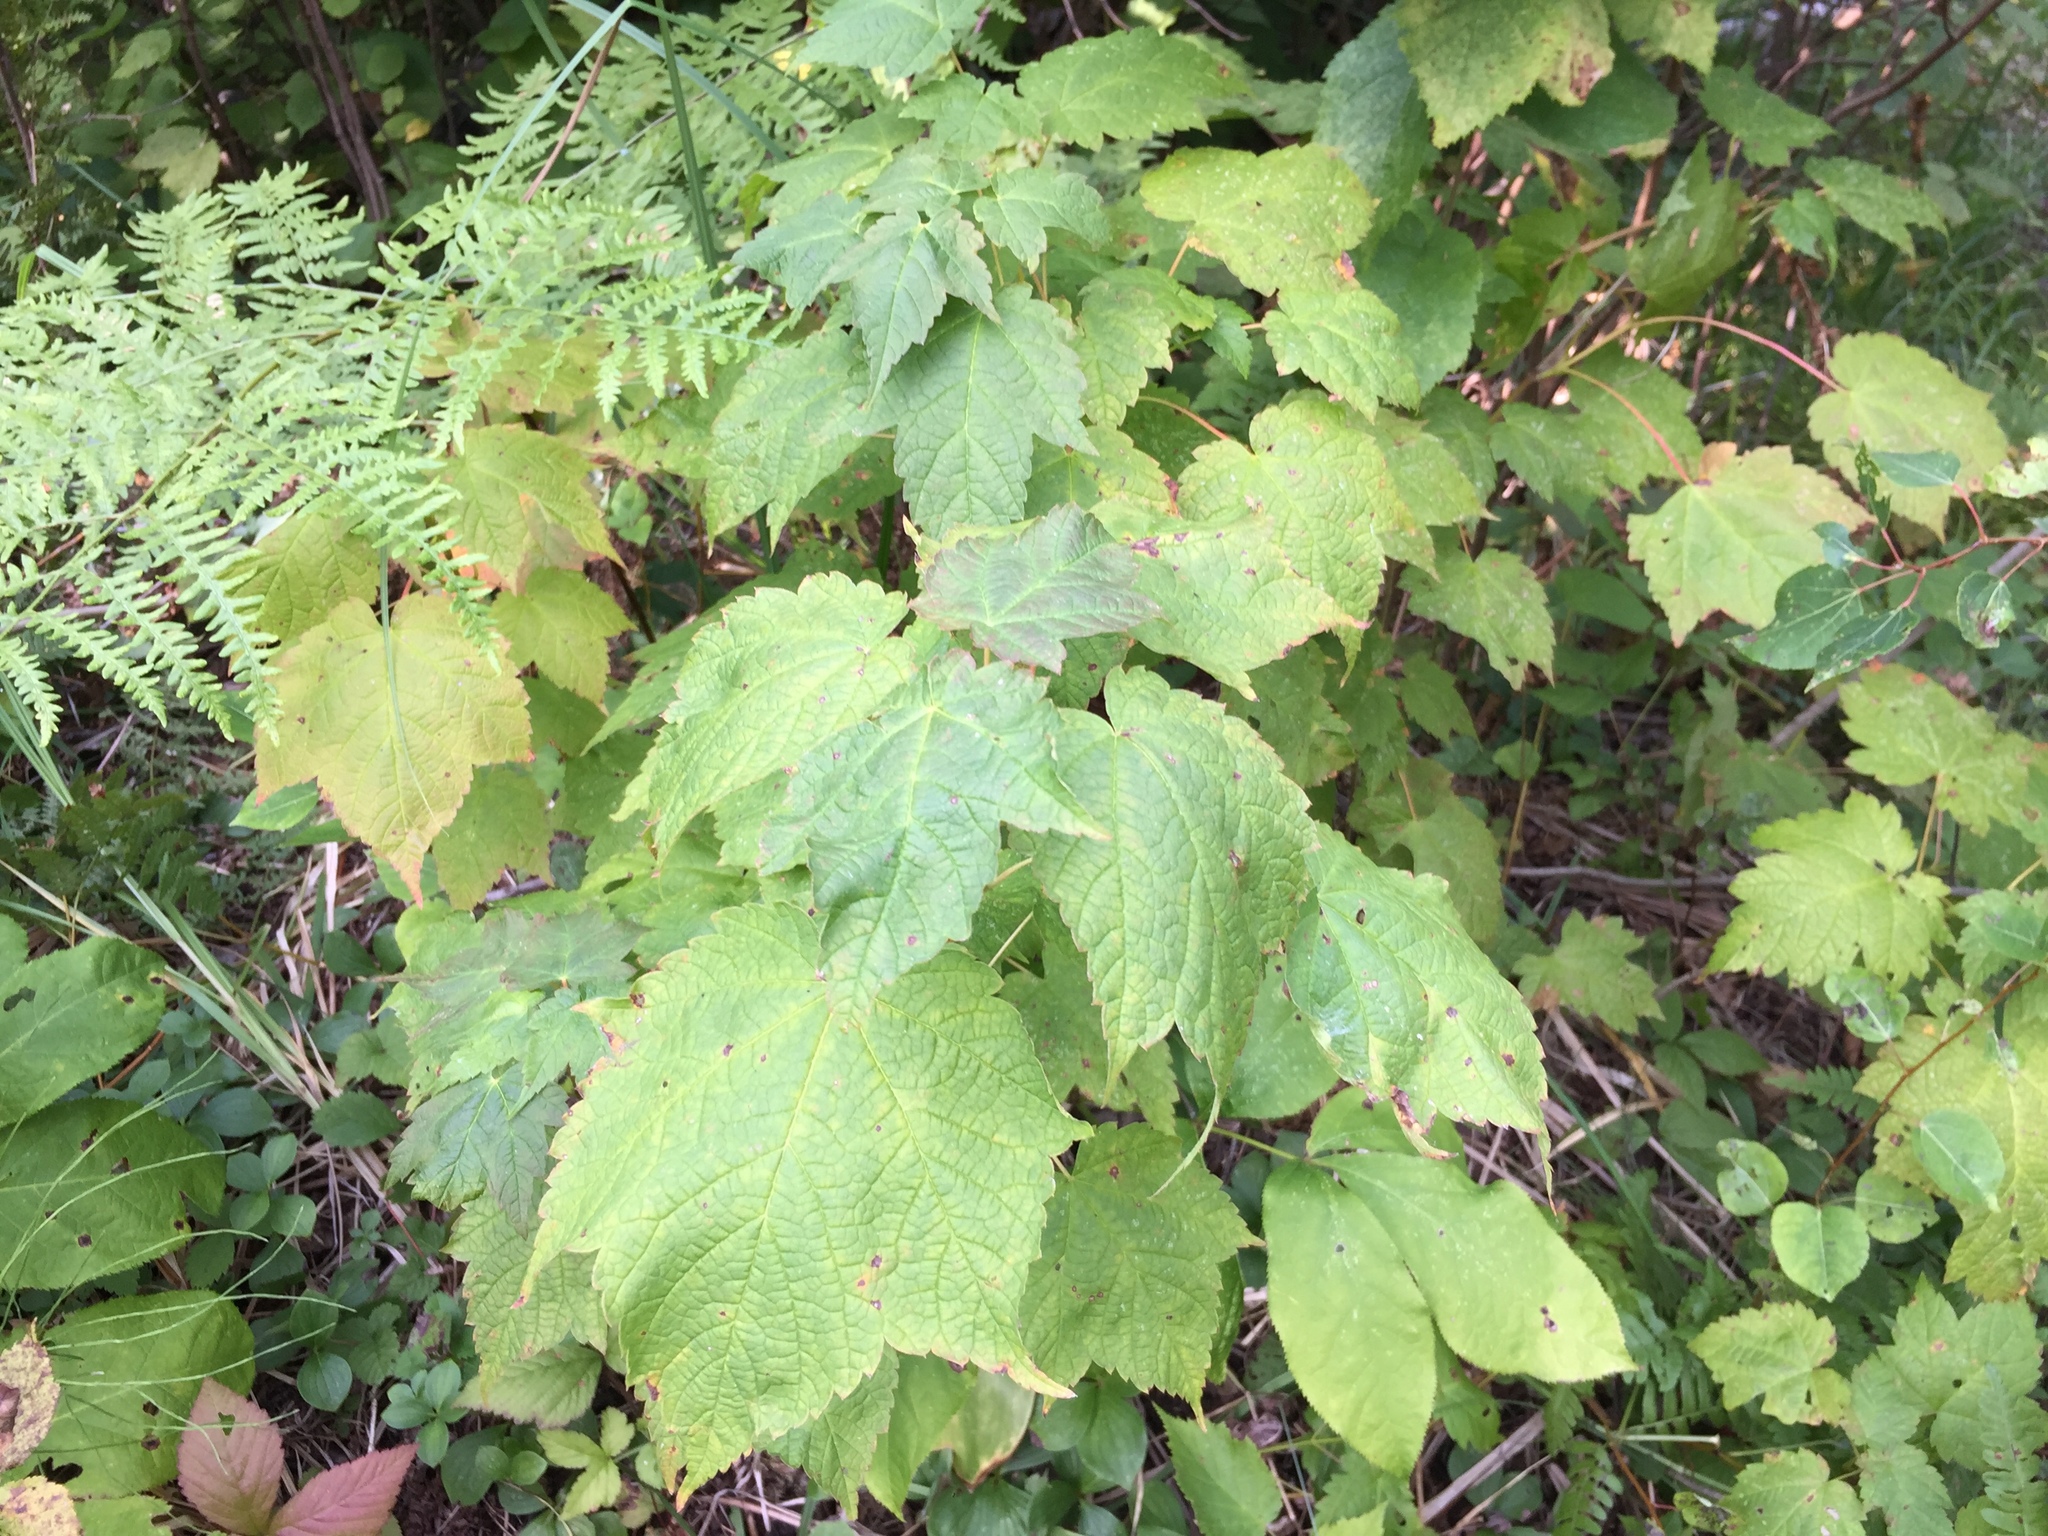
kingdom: Plantae
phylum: Tracheophyta
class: Magnoliopsida
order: Sapindales
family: Sapindaceae
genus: Acer
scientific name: Acer spicatum
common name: Mountain maple
